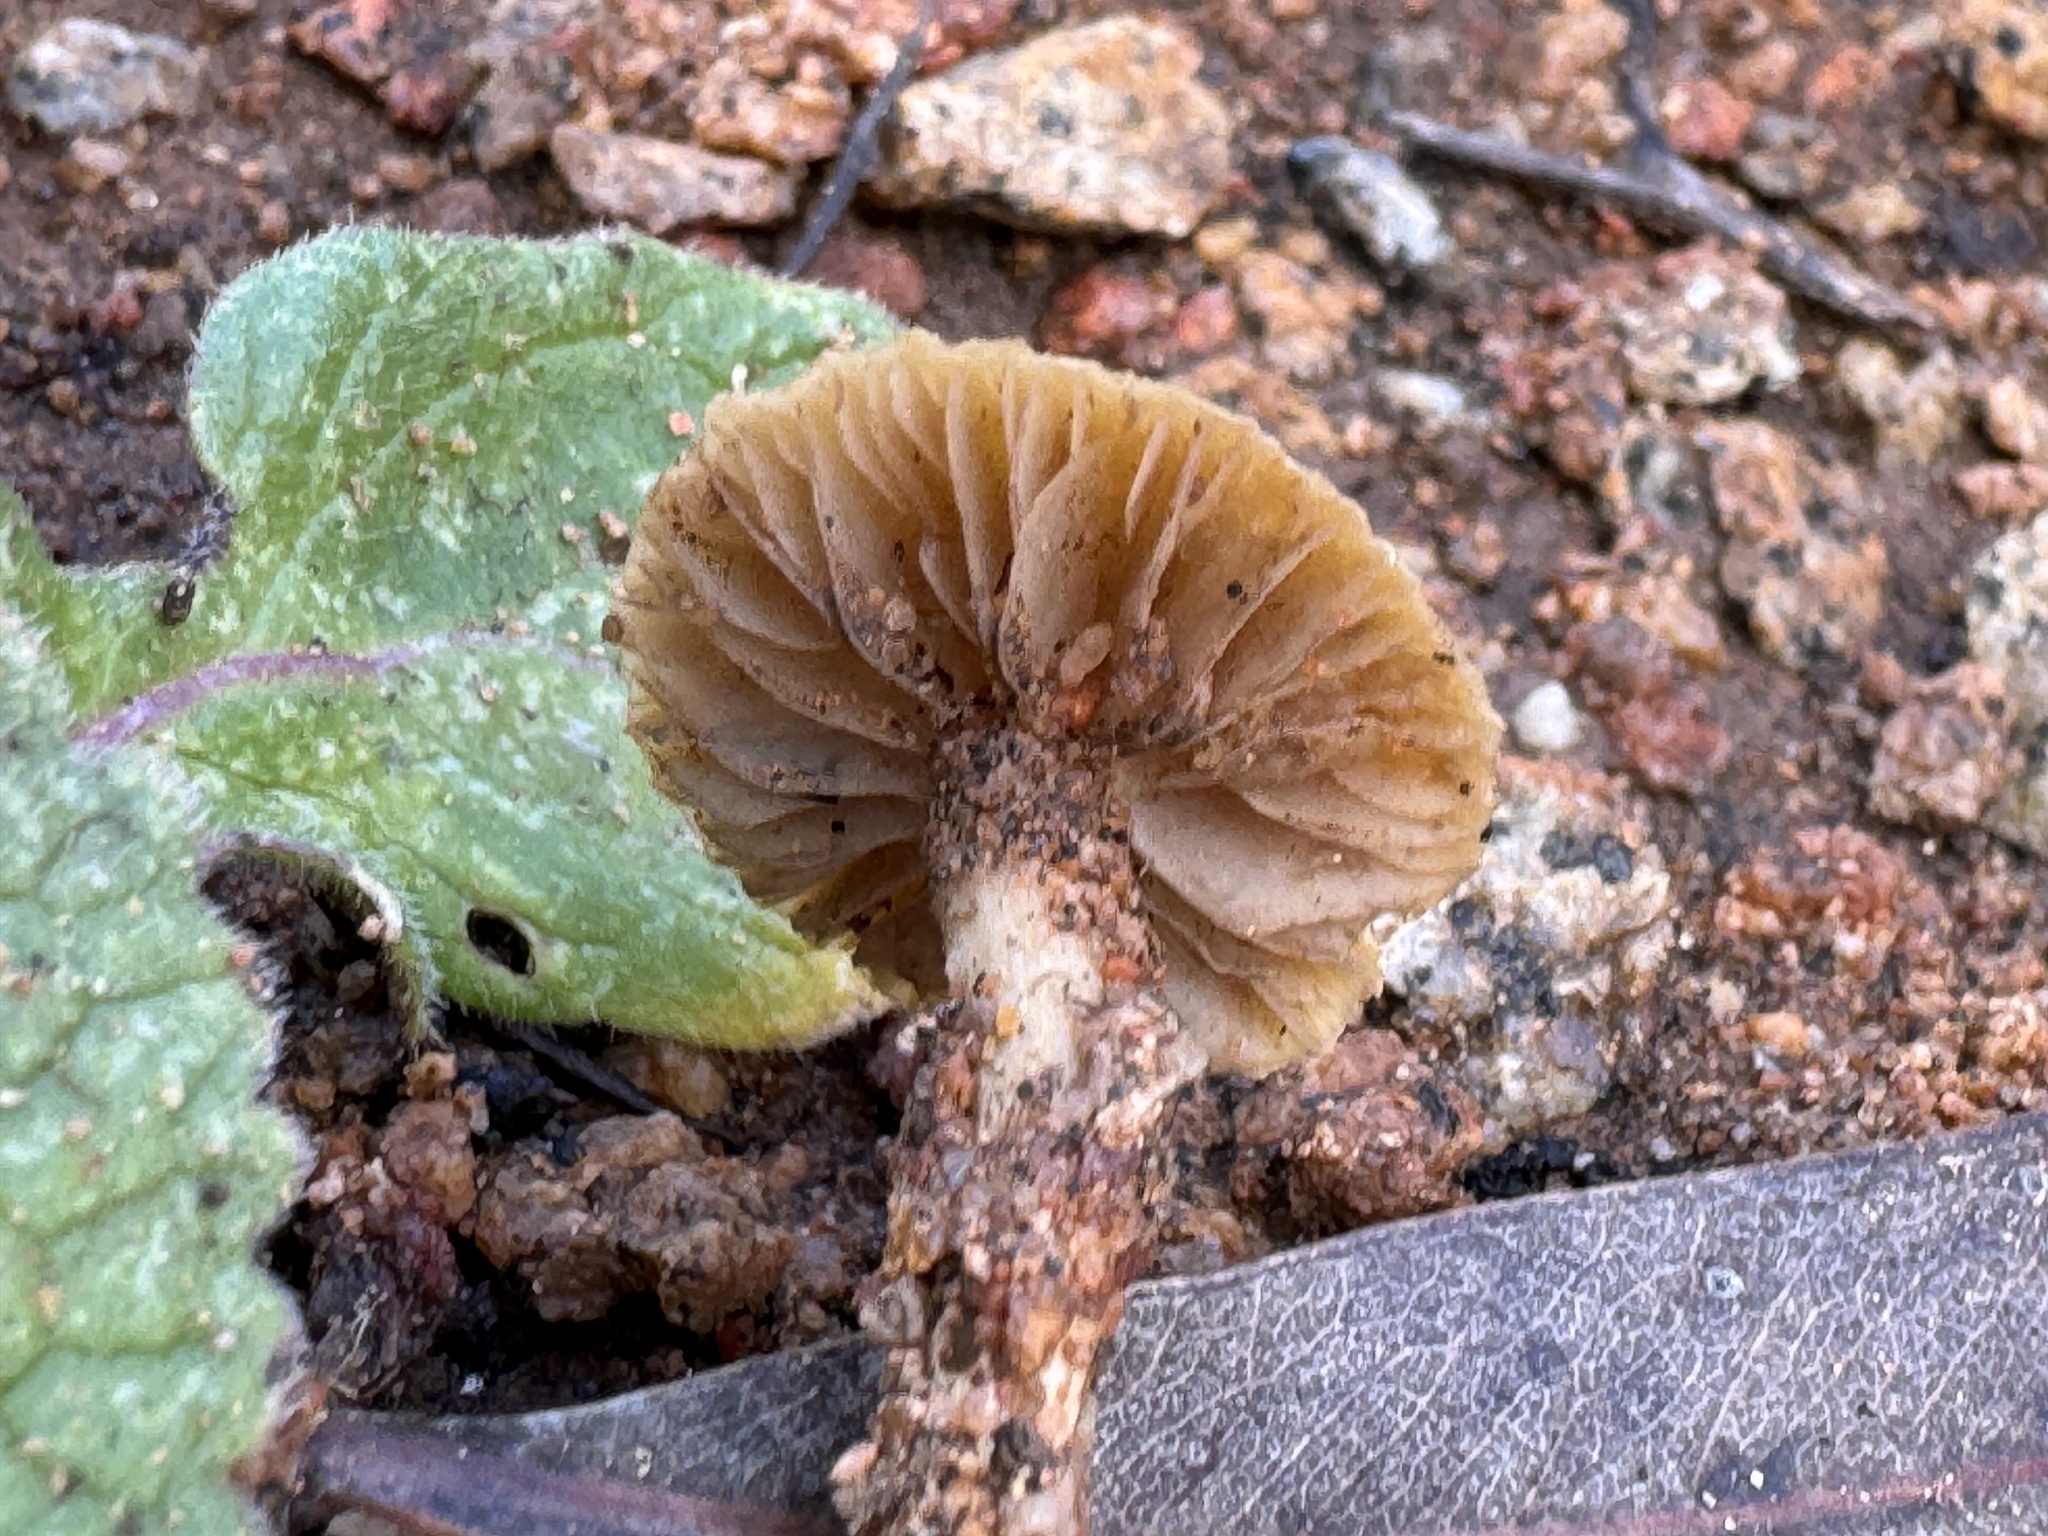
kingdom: Fungi
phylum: Basidiomycota
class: Agaricomycetes
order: Agaricales
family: Strophariaceae
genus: Agrocybe
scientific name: Agrocybe pediades
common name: Common fieldcap
